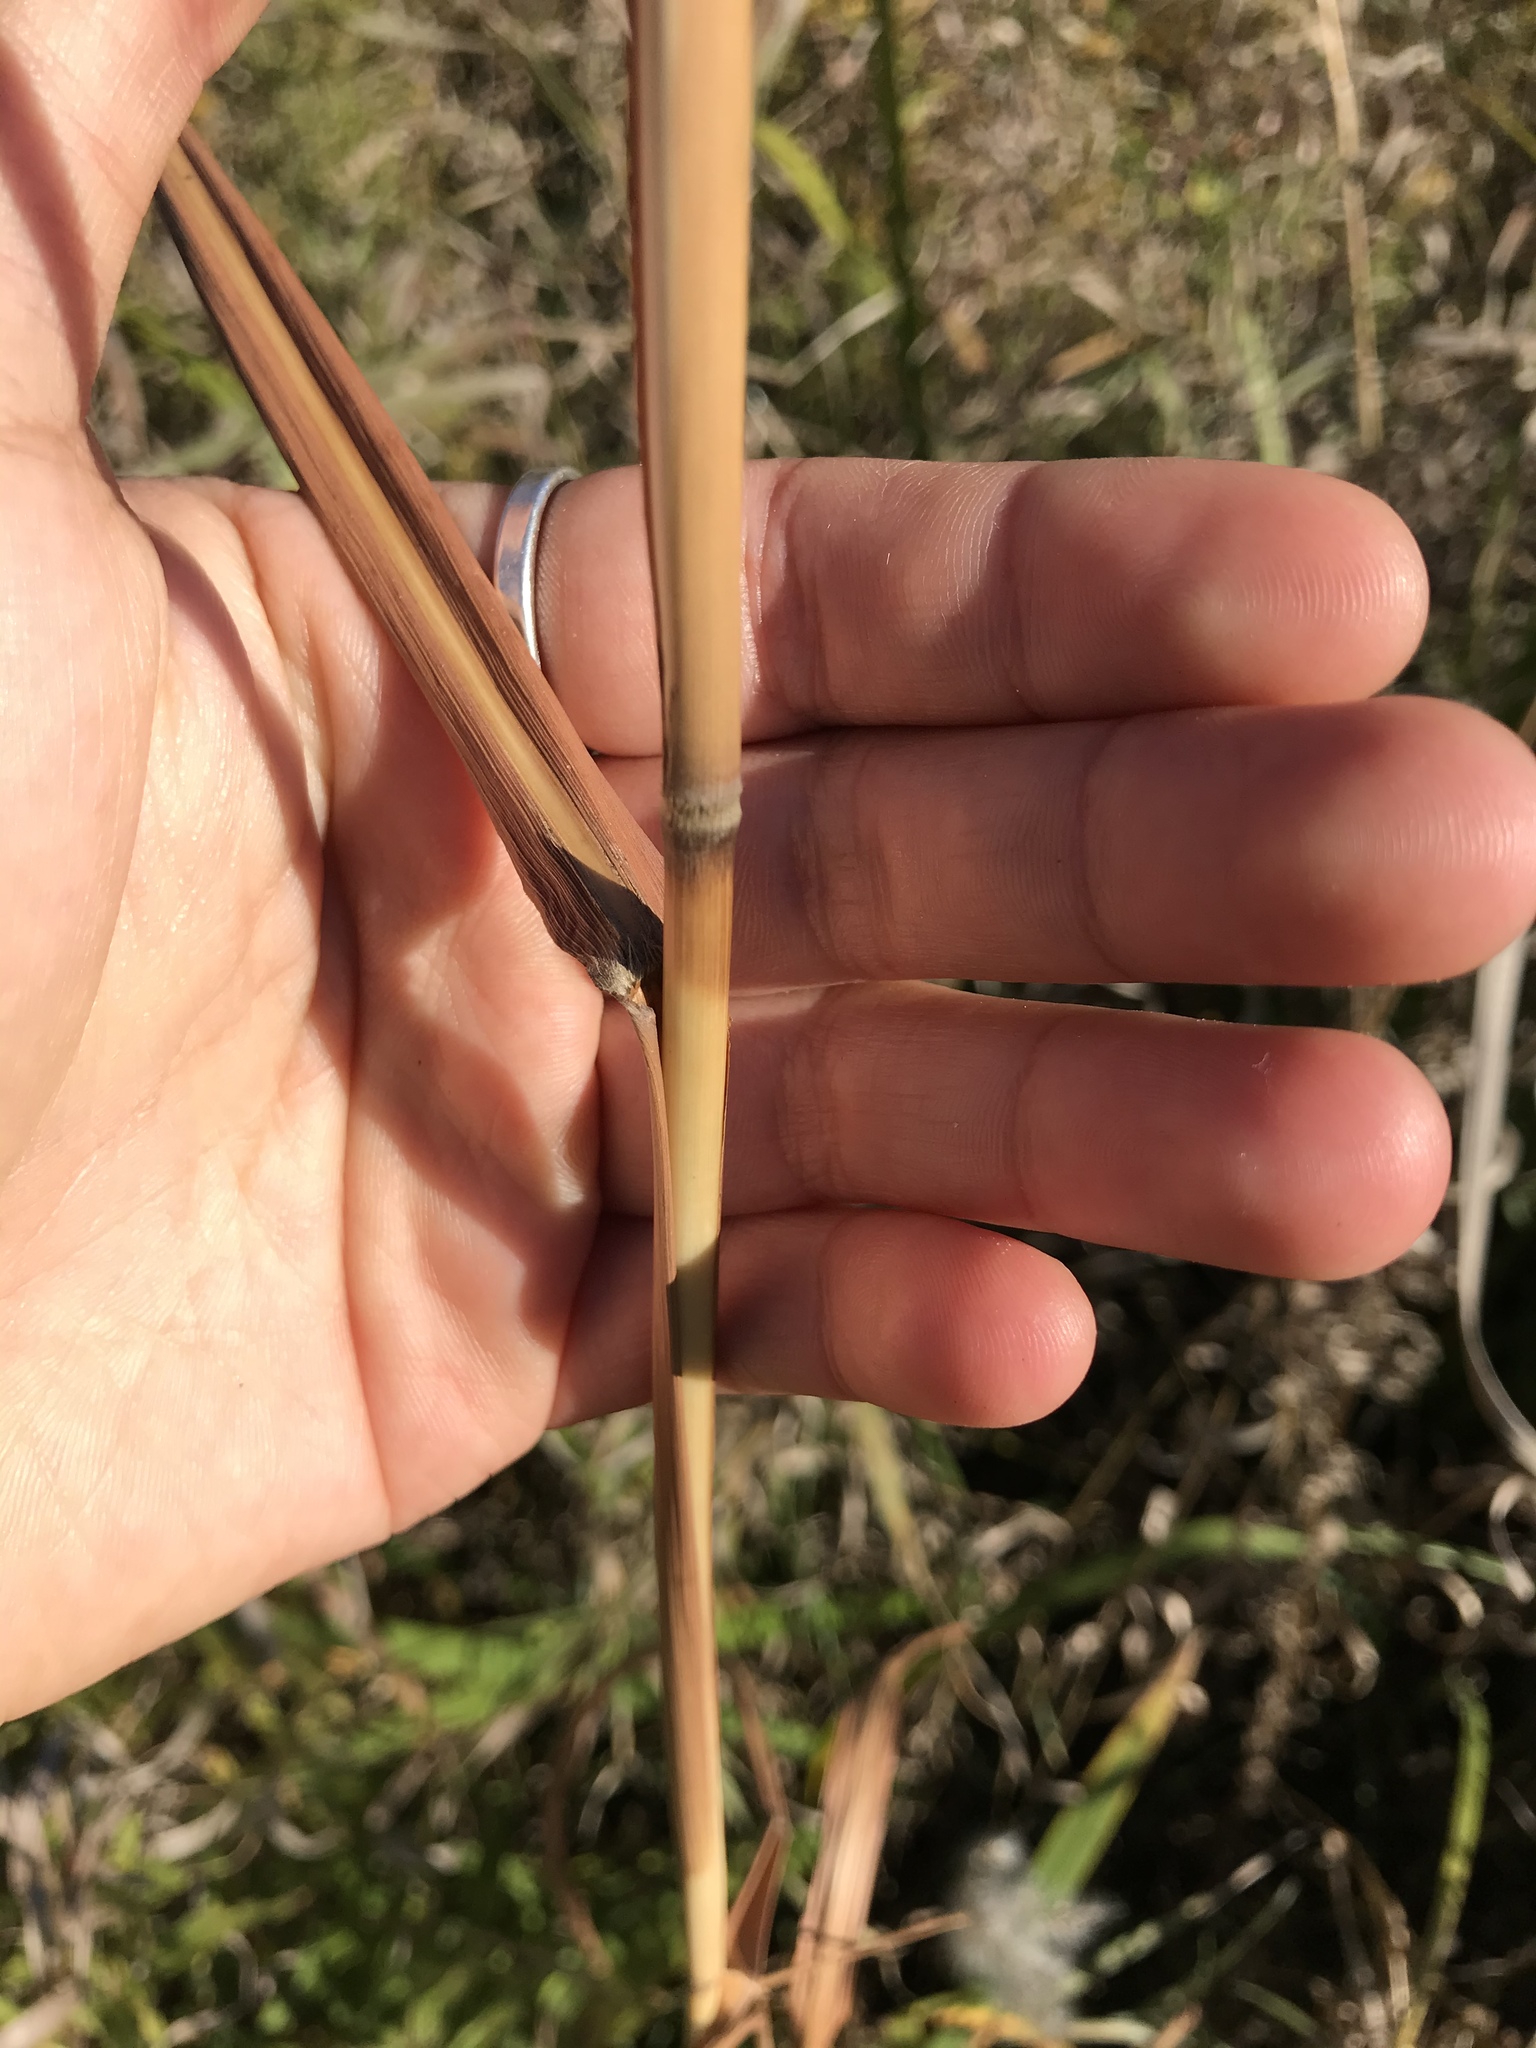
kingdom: Plantae
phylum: Tracheophyta
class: Liliopsida
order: Poales
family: Poaceae
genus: Miscanthus
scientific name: Miscanthus sacchariflorus
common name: Amur silver grass
